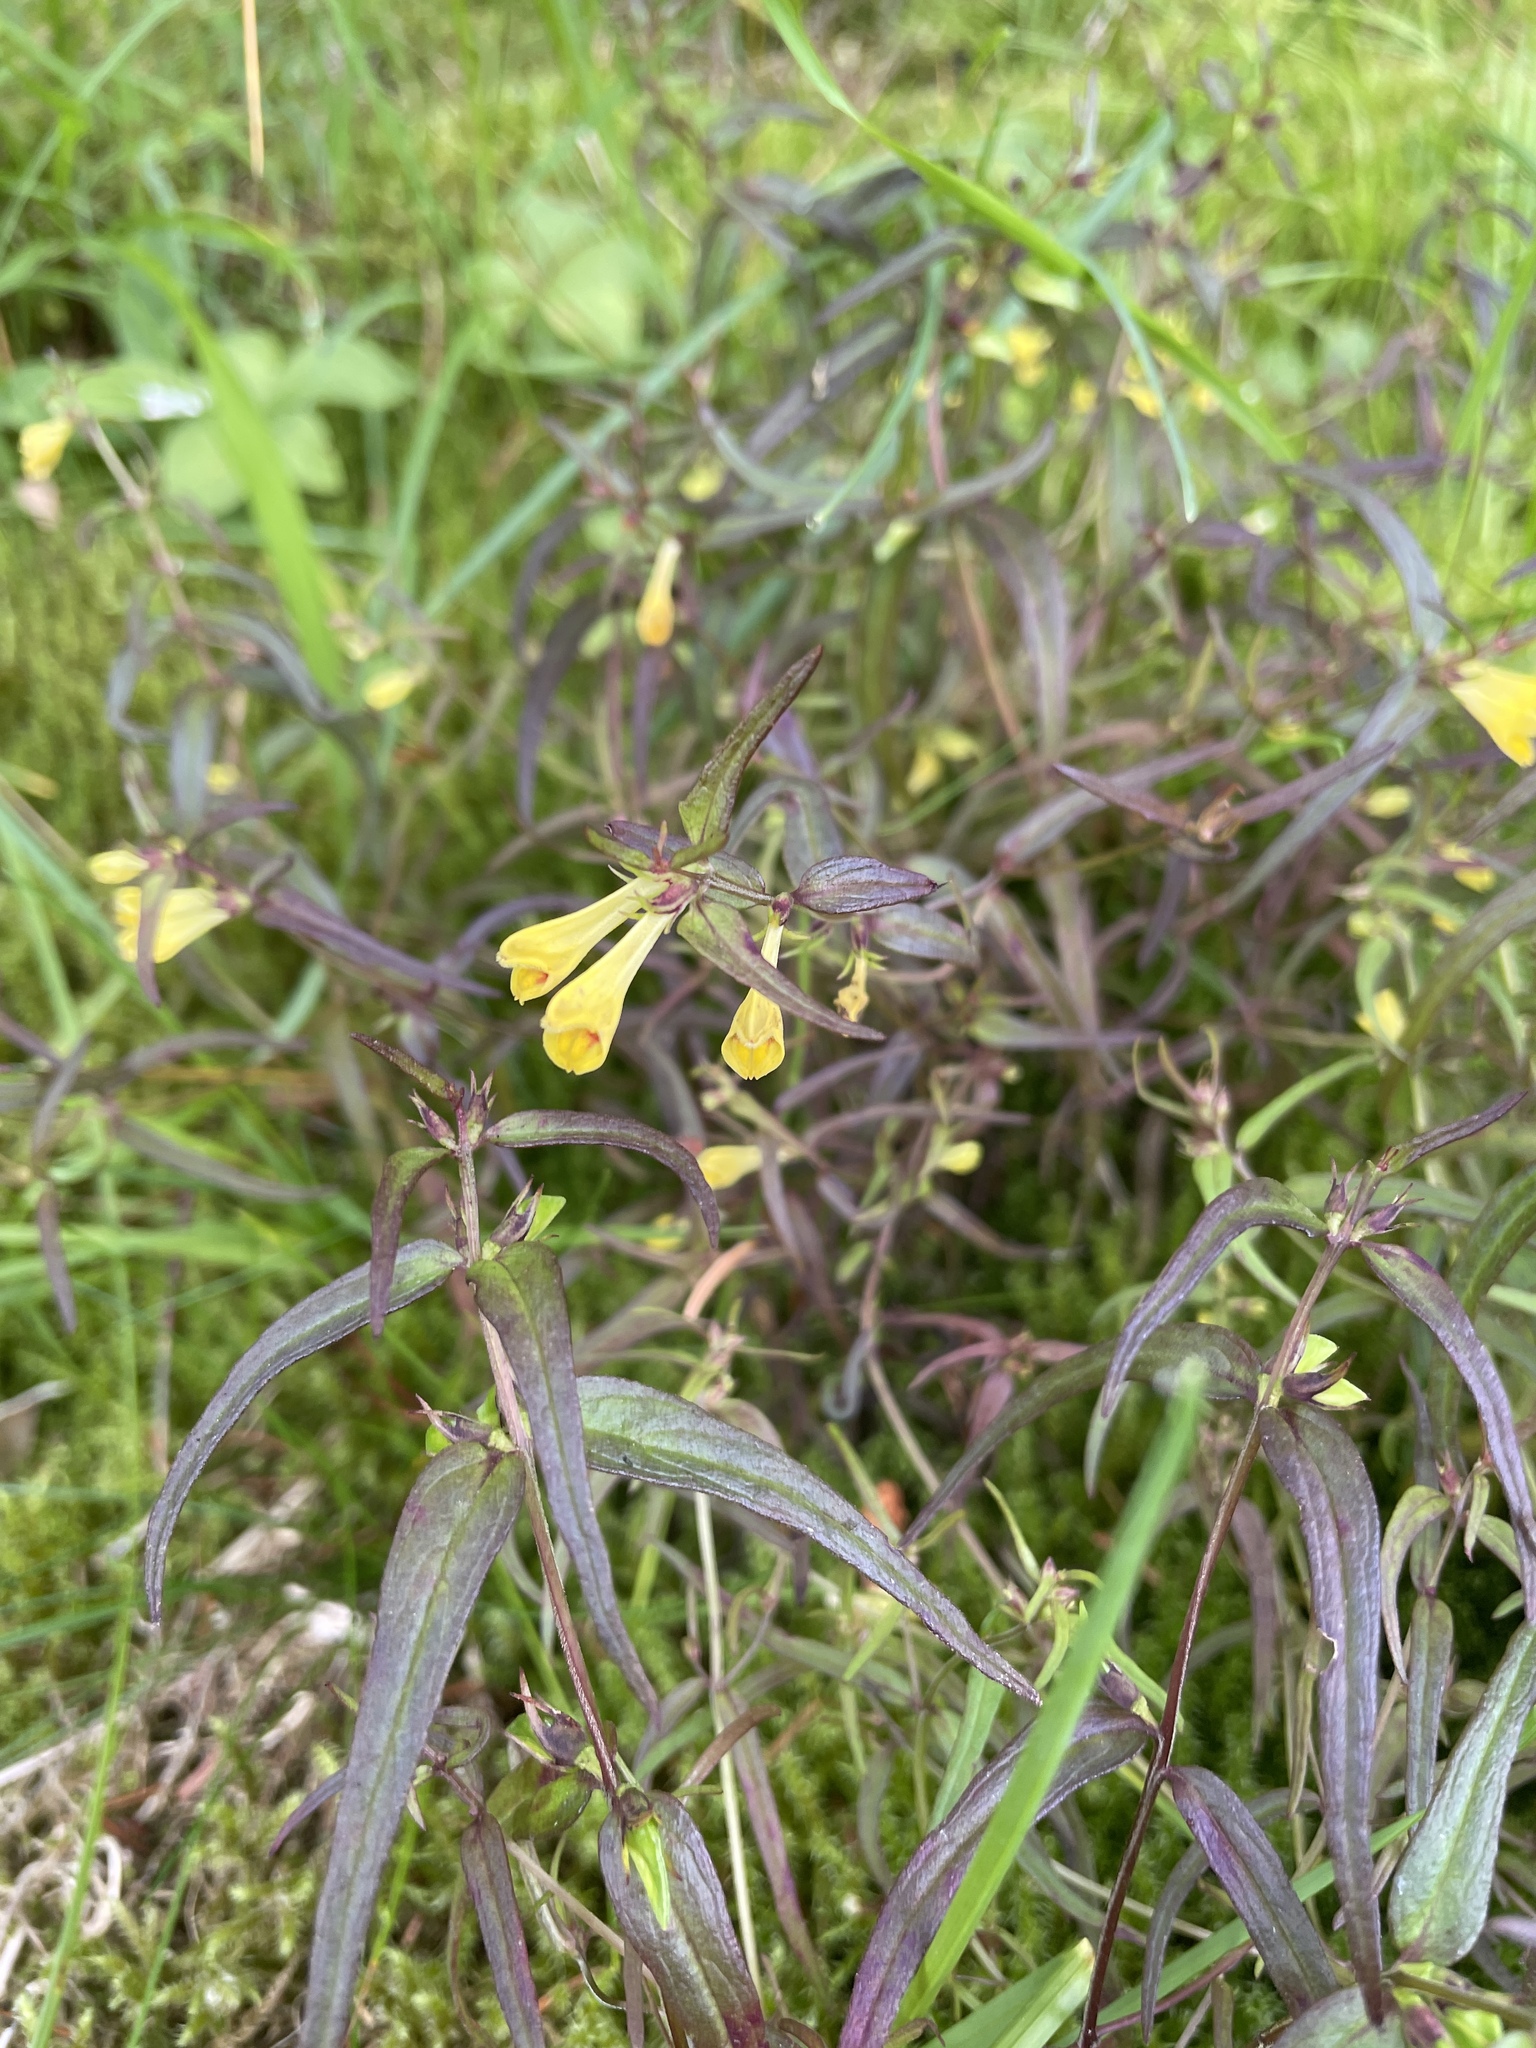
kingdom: Plantae
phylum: Tracheophyta
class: Magnoliopsida
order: Lamiales
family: Orobanchaceae
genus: Melampyrum
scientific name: Melampyrum pratense
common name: Common cow-wheat
